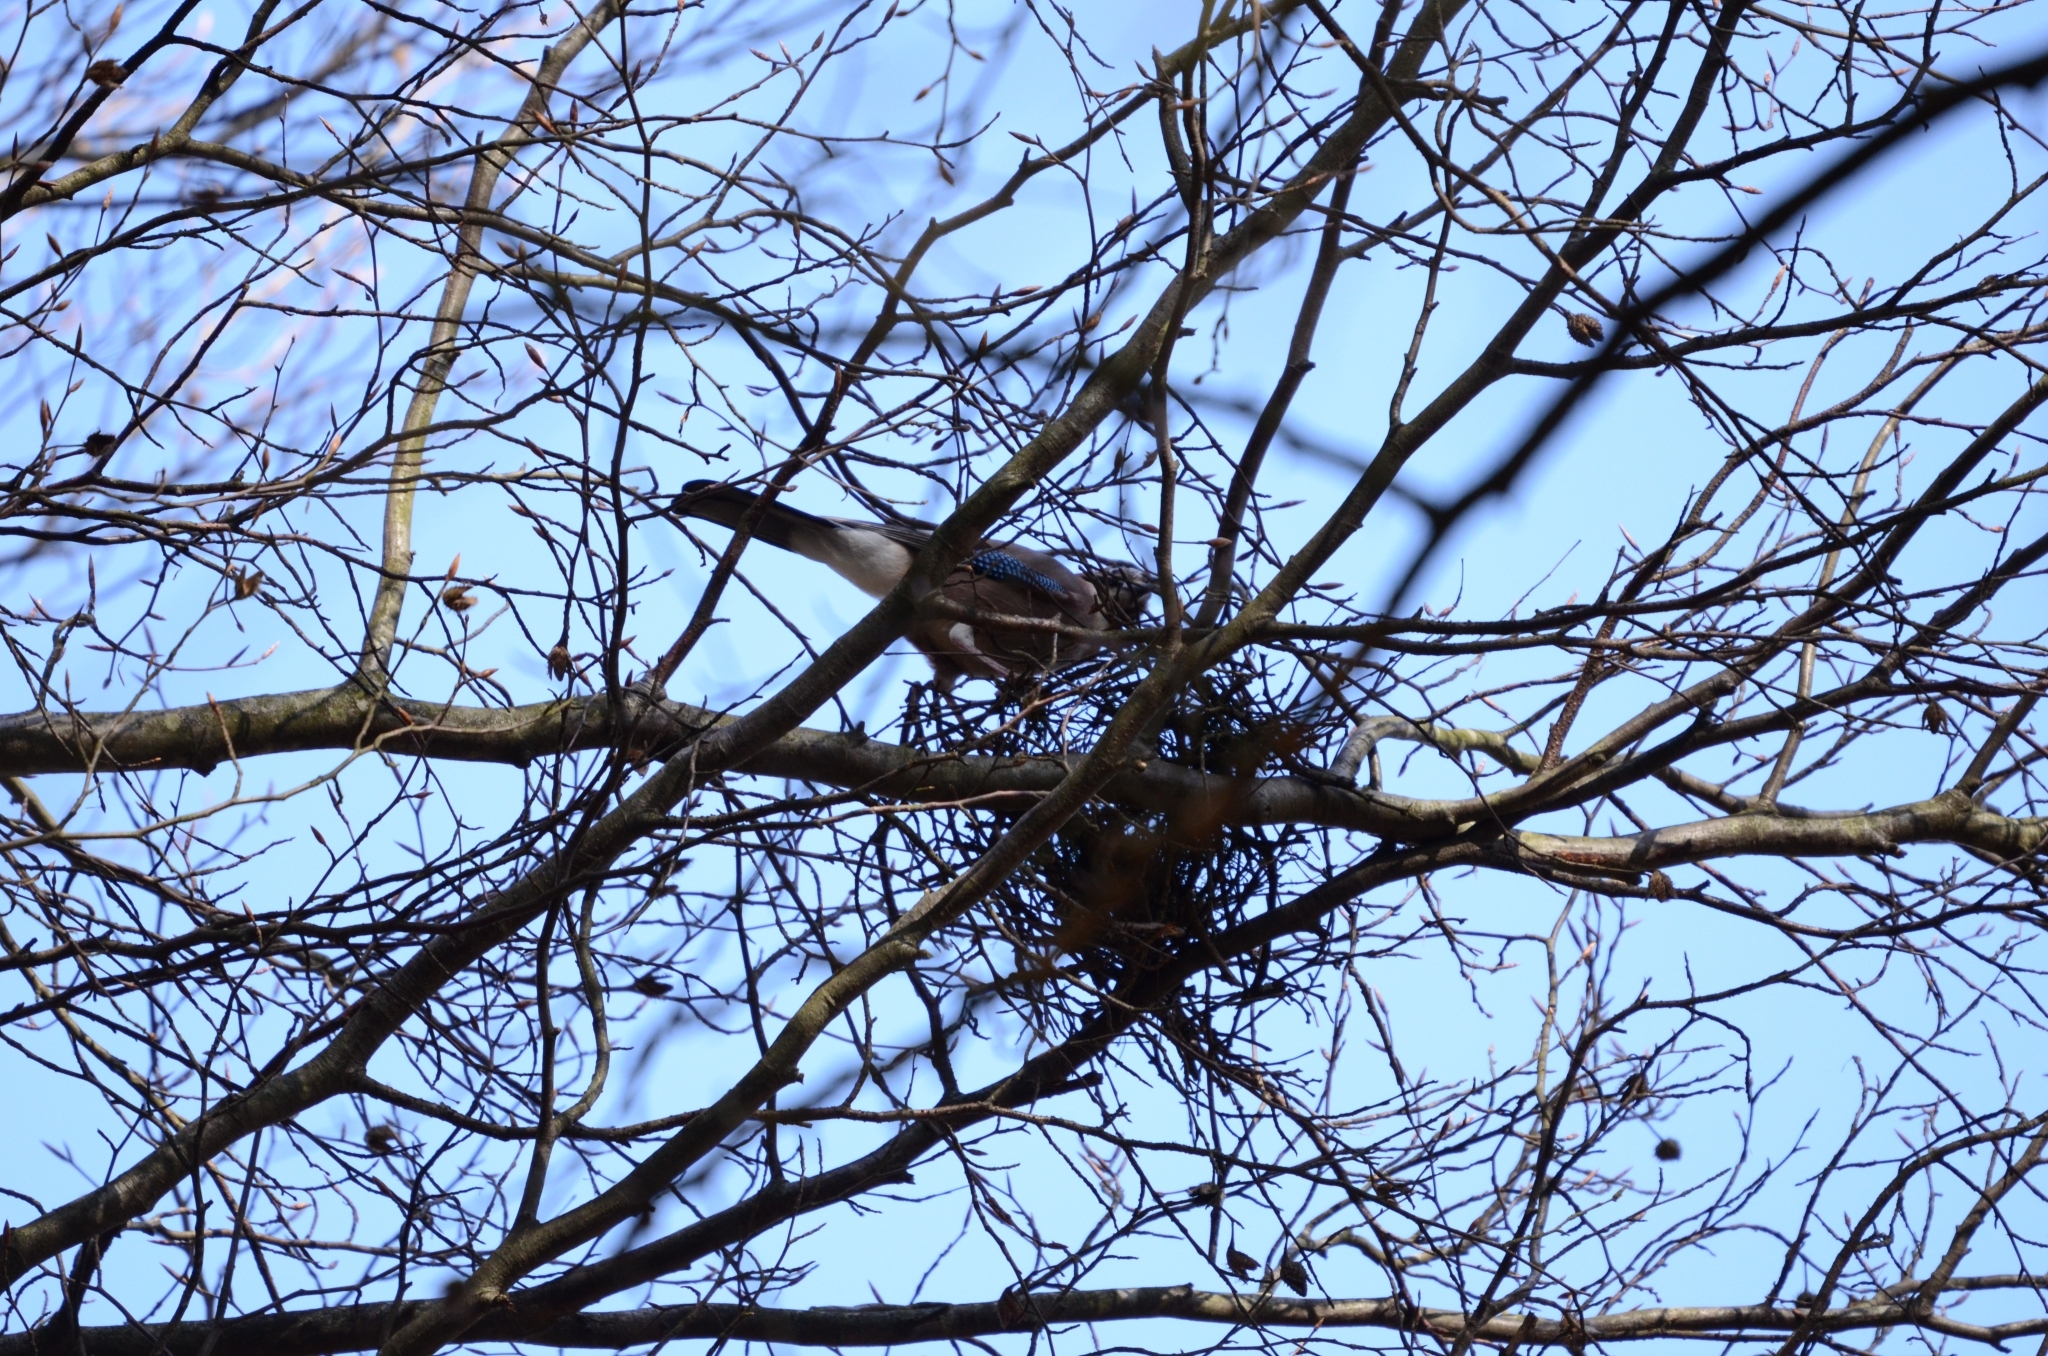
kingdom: Animalia
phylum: Chordata
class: Aves
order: Passeriformes
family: Corvidae
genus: Garrulus
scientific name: Garrulus glandarius
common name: Eurasian jay
